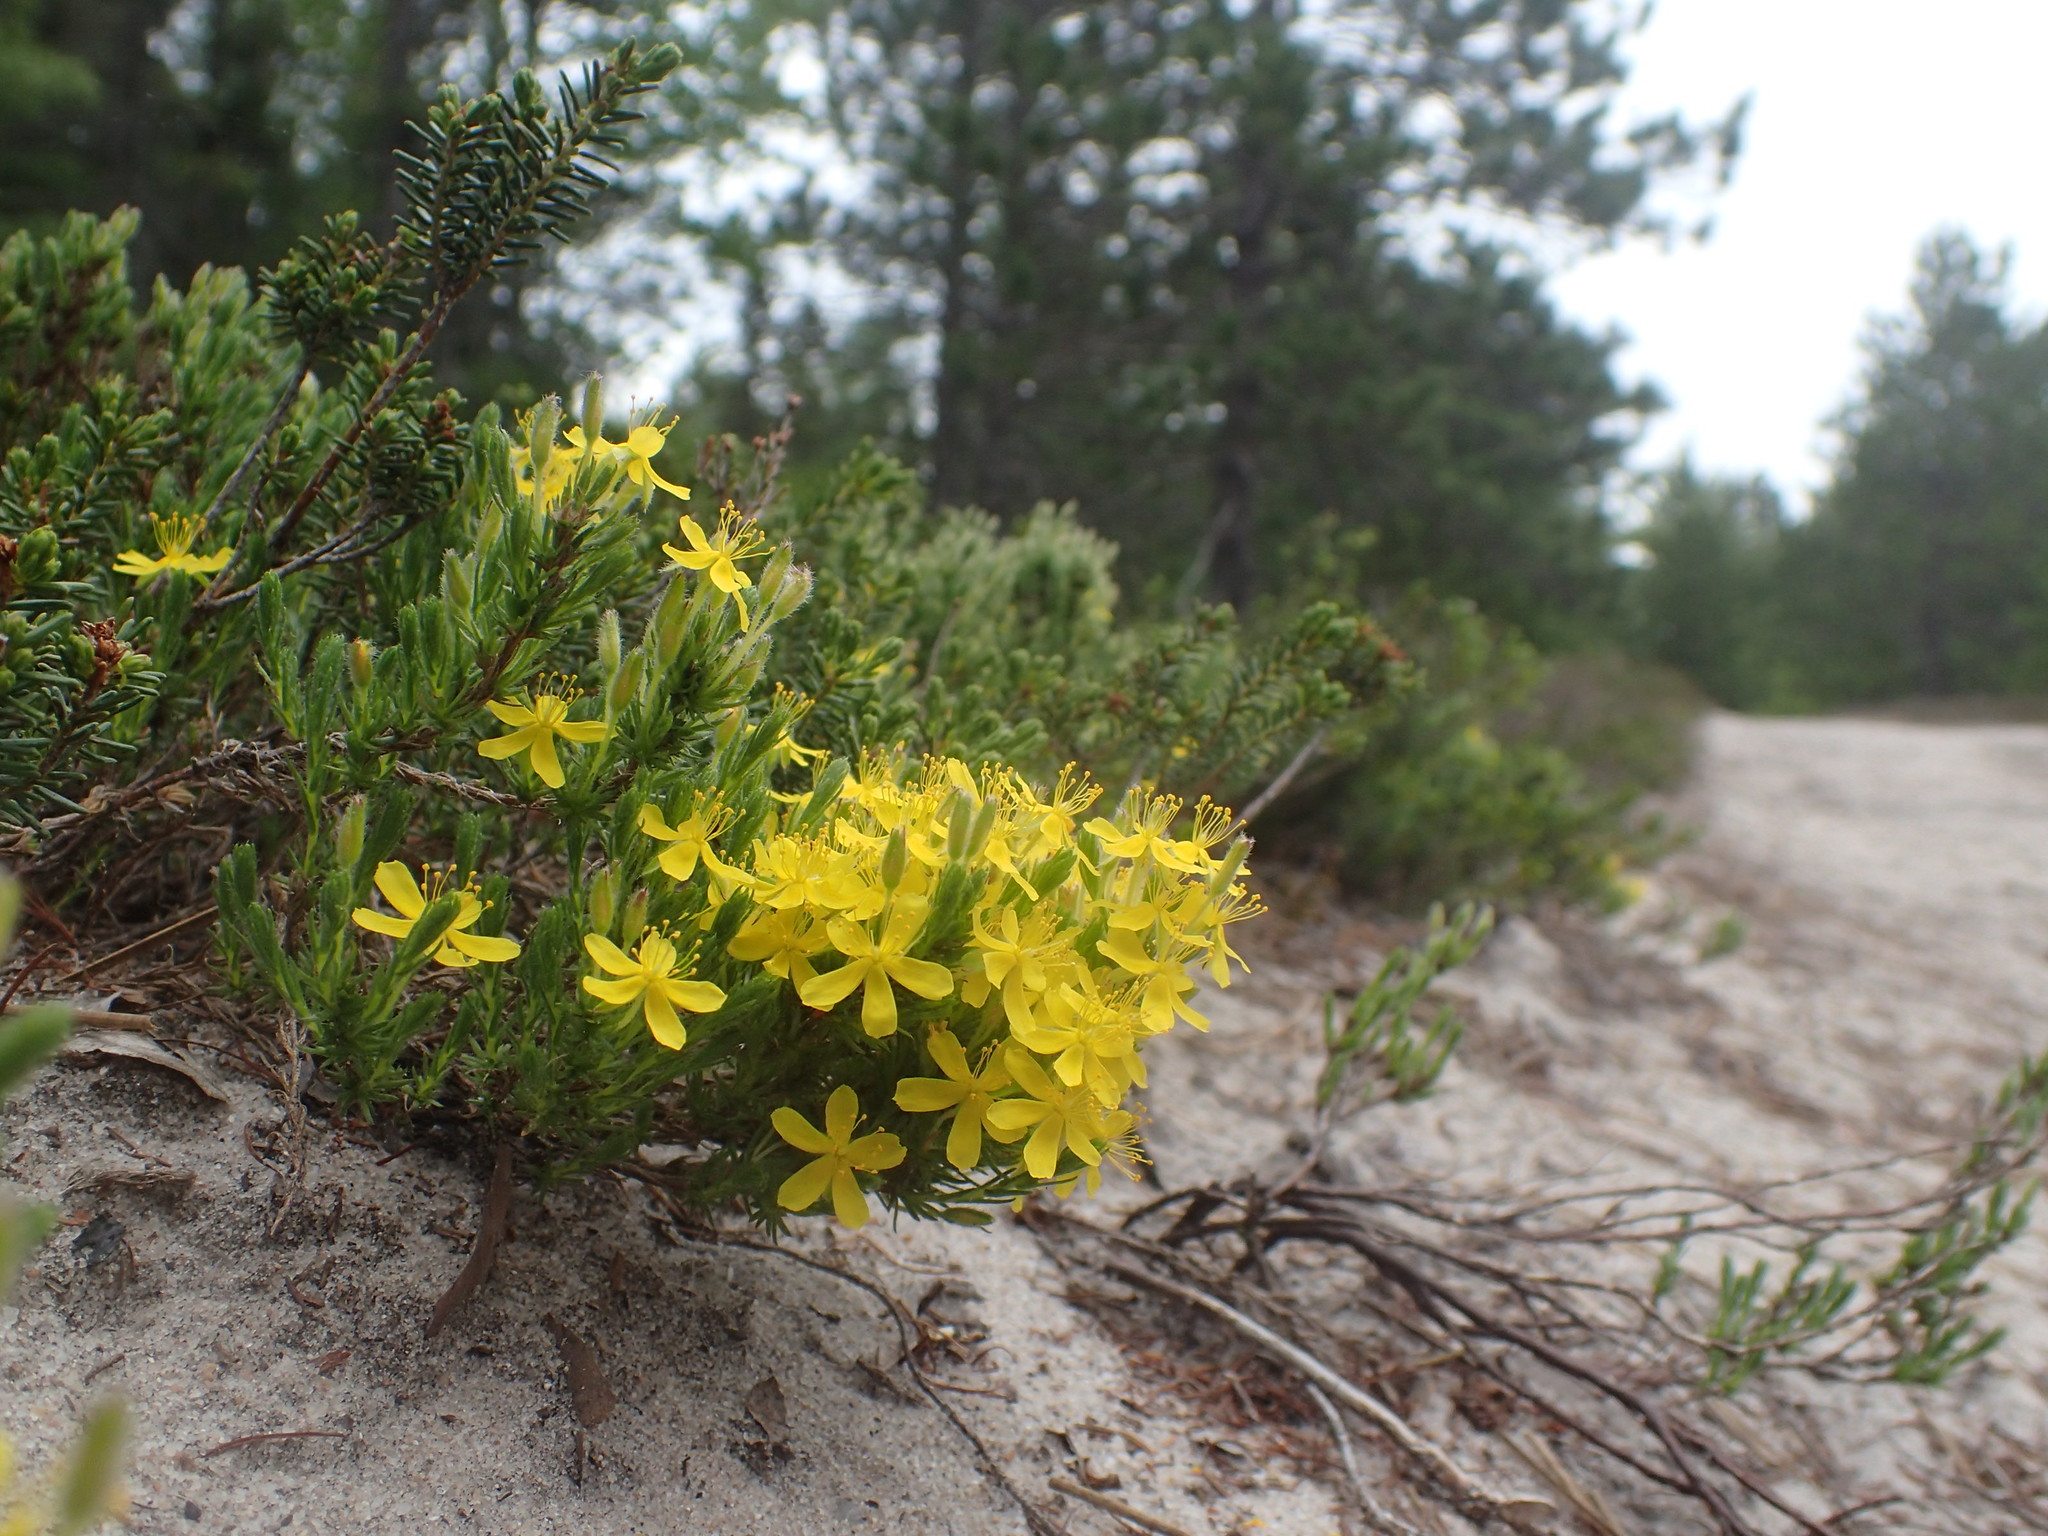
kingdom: Plantae
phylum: Tracheophyta
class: Magnoliopsida
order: Malvales
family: Cistaceae
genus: Hudsonia
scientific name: Hudsonia ericoides
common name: Golden-heather
